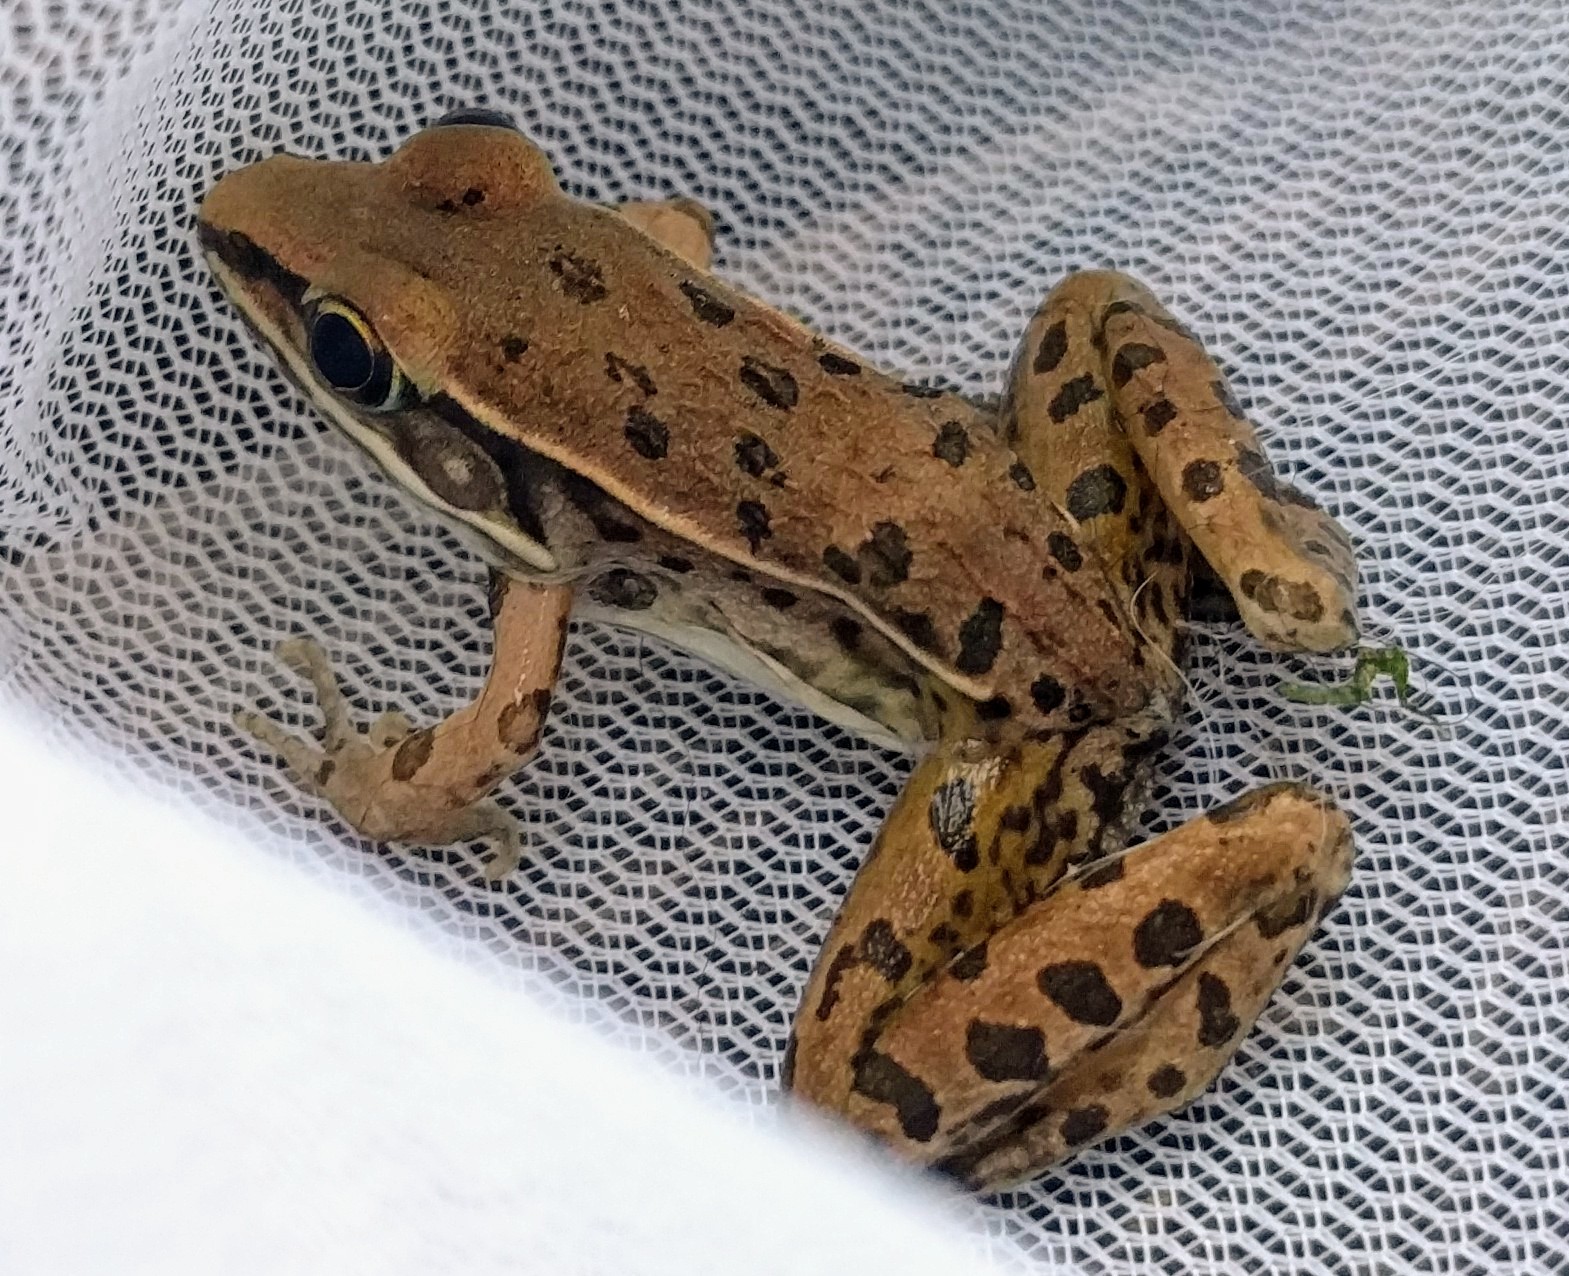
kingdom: Animalia
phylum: Chordata
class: Amphibia
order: Anura
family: Ranidae
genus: Lithobates
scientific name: Lithobates sphenocephalus
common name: Southern leopard frog
